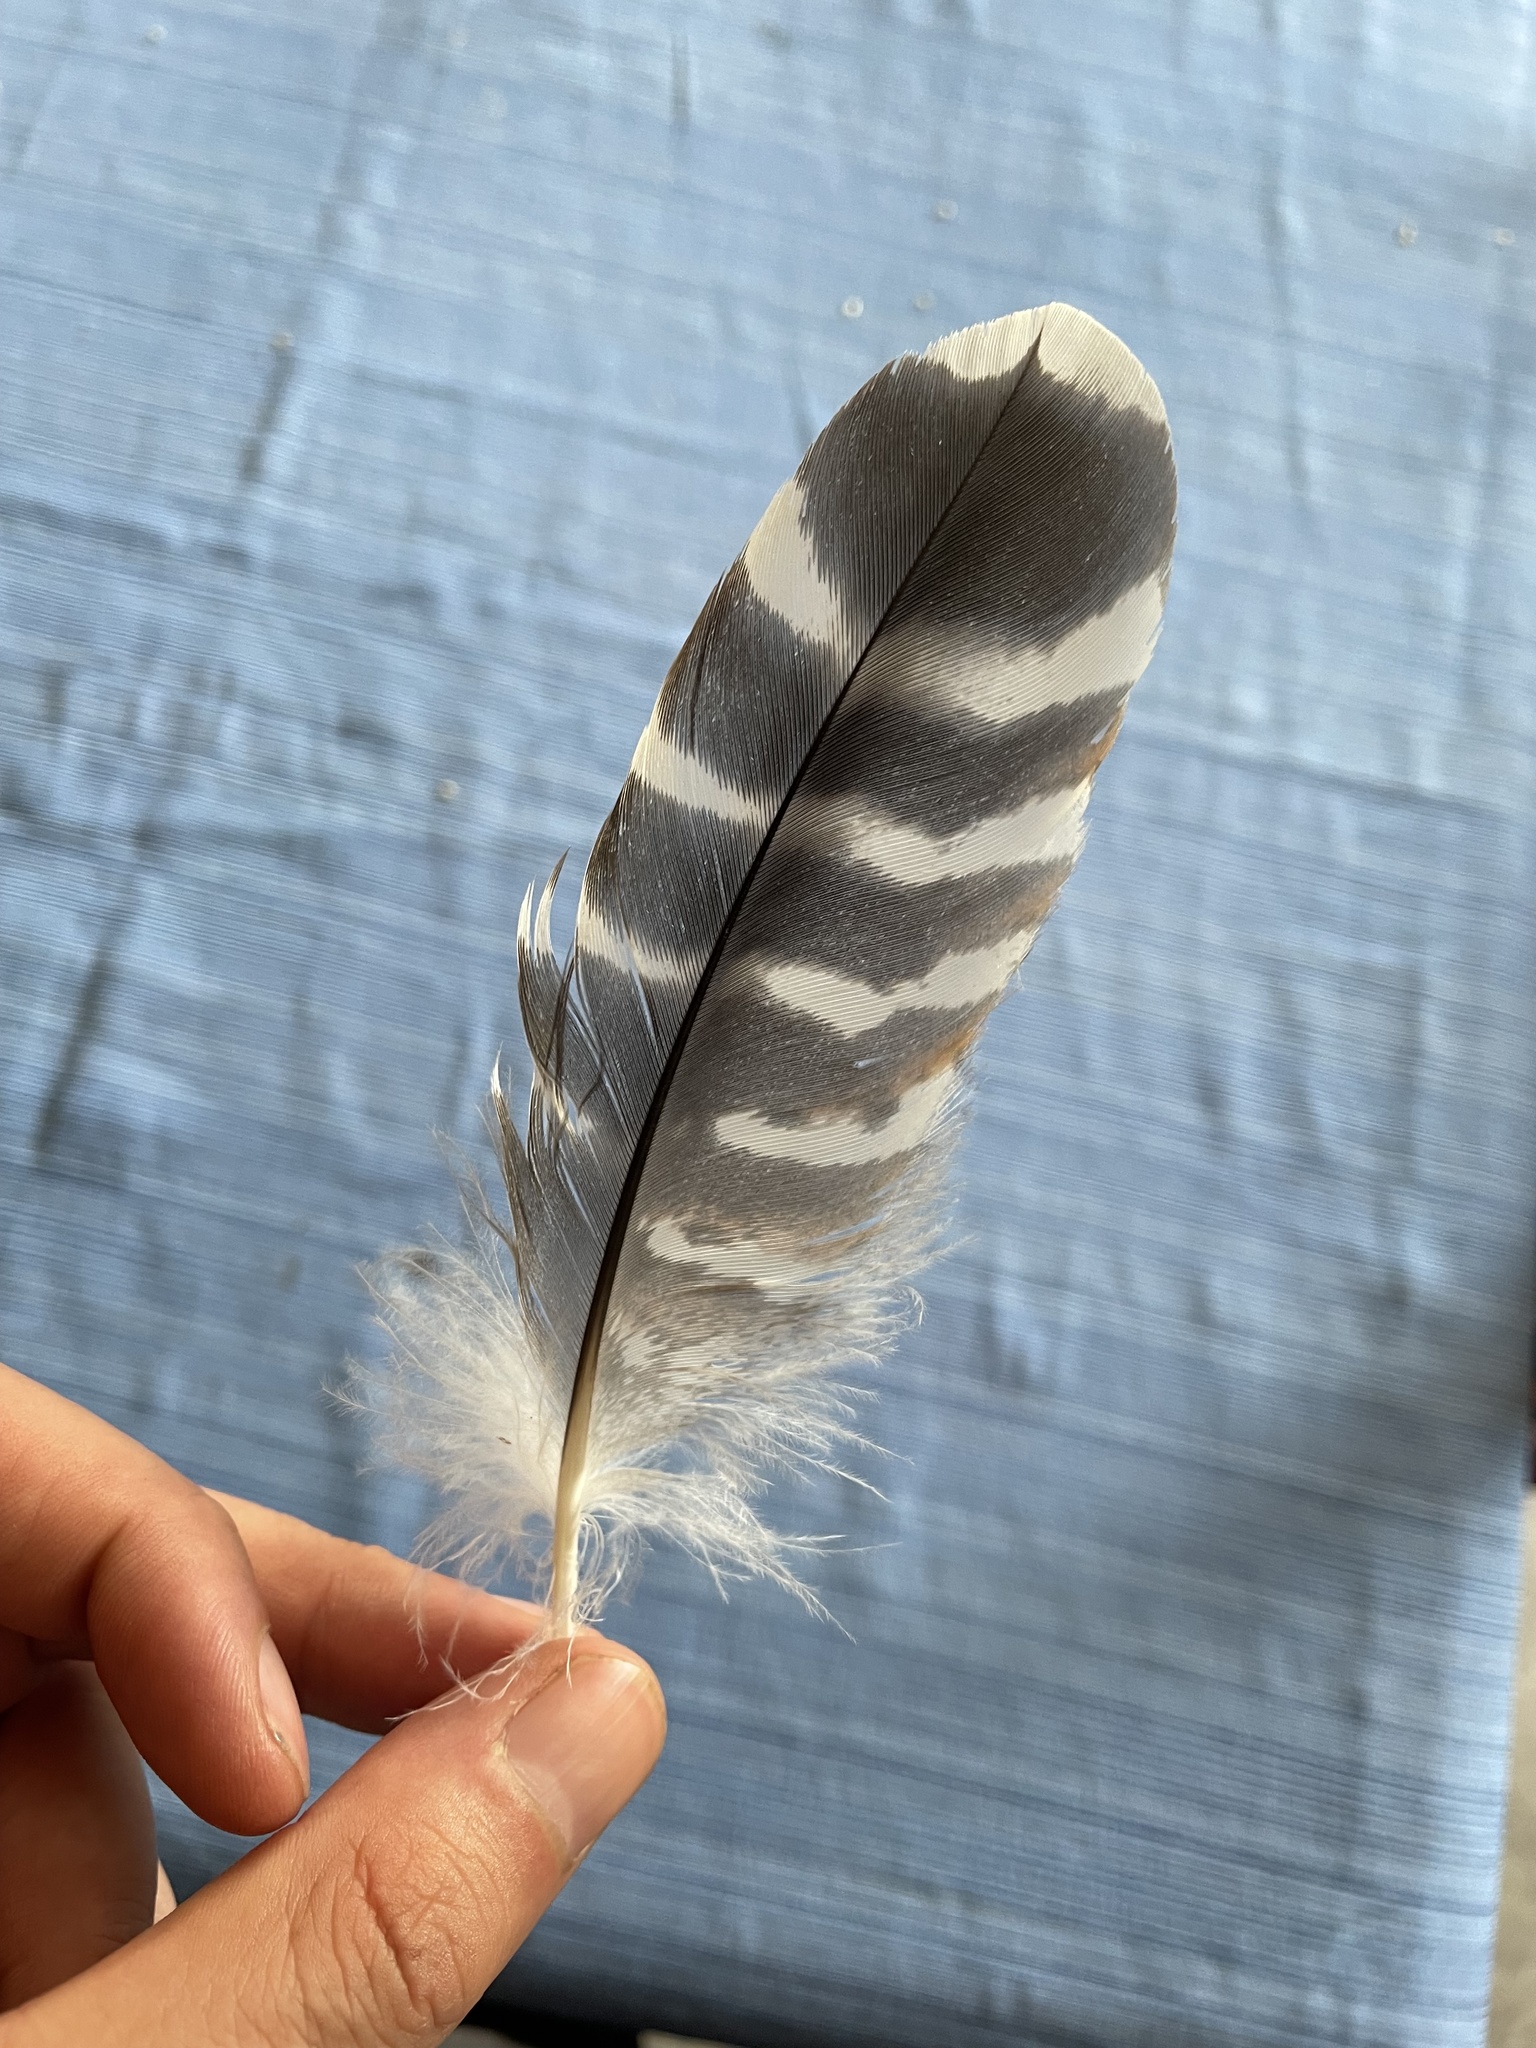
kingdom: Animalia
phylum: Chordata
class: Aves
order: Accipitriformes
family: Accipitridae
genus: Buteo
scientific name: Buteo lineatus
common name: Red-shouldered hawk
